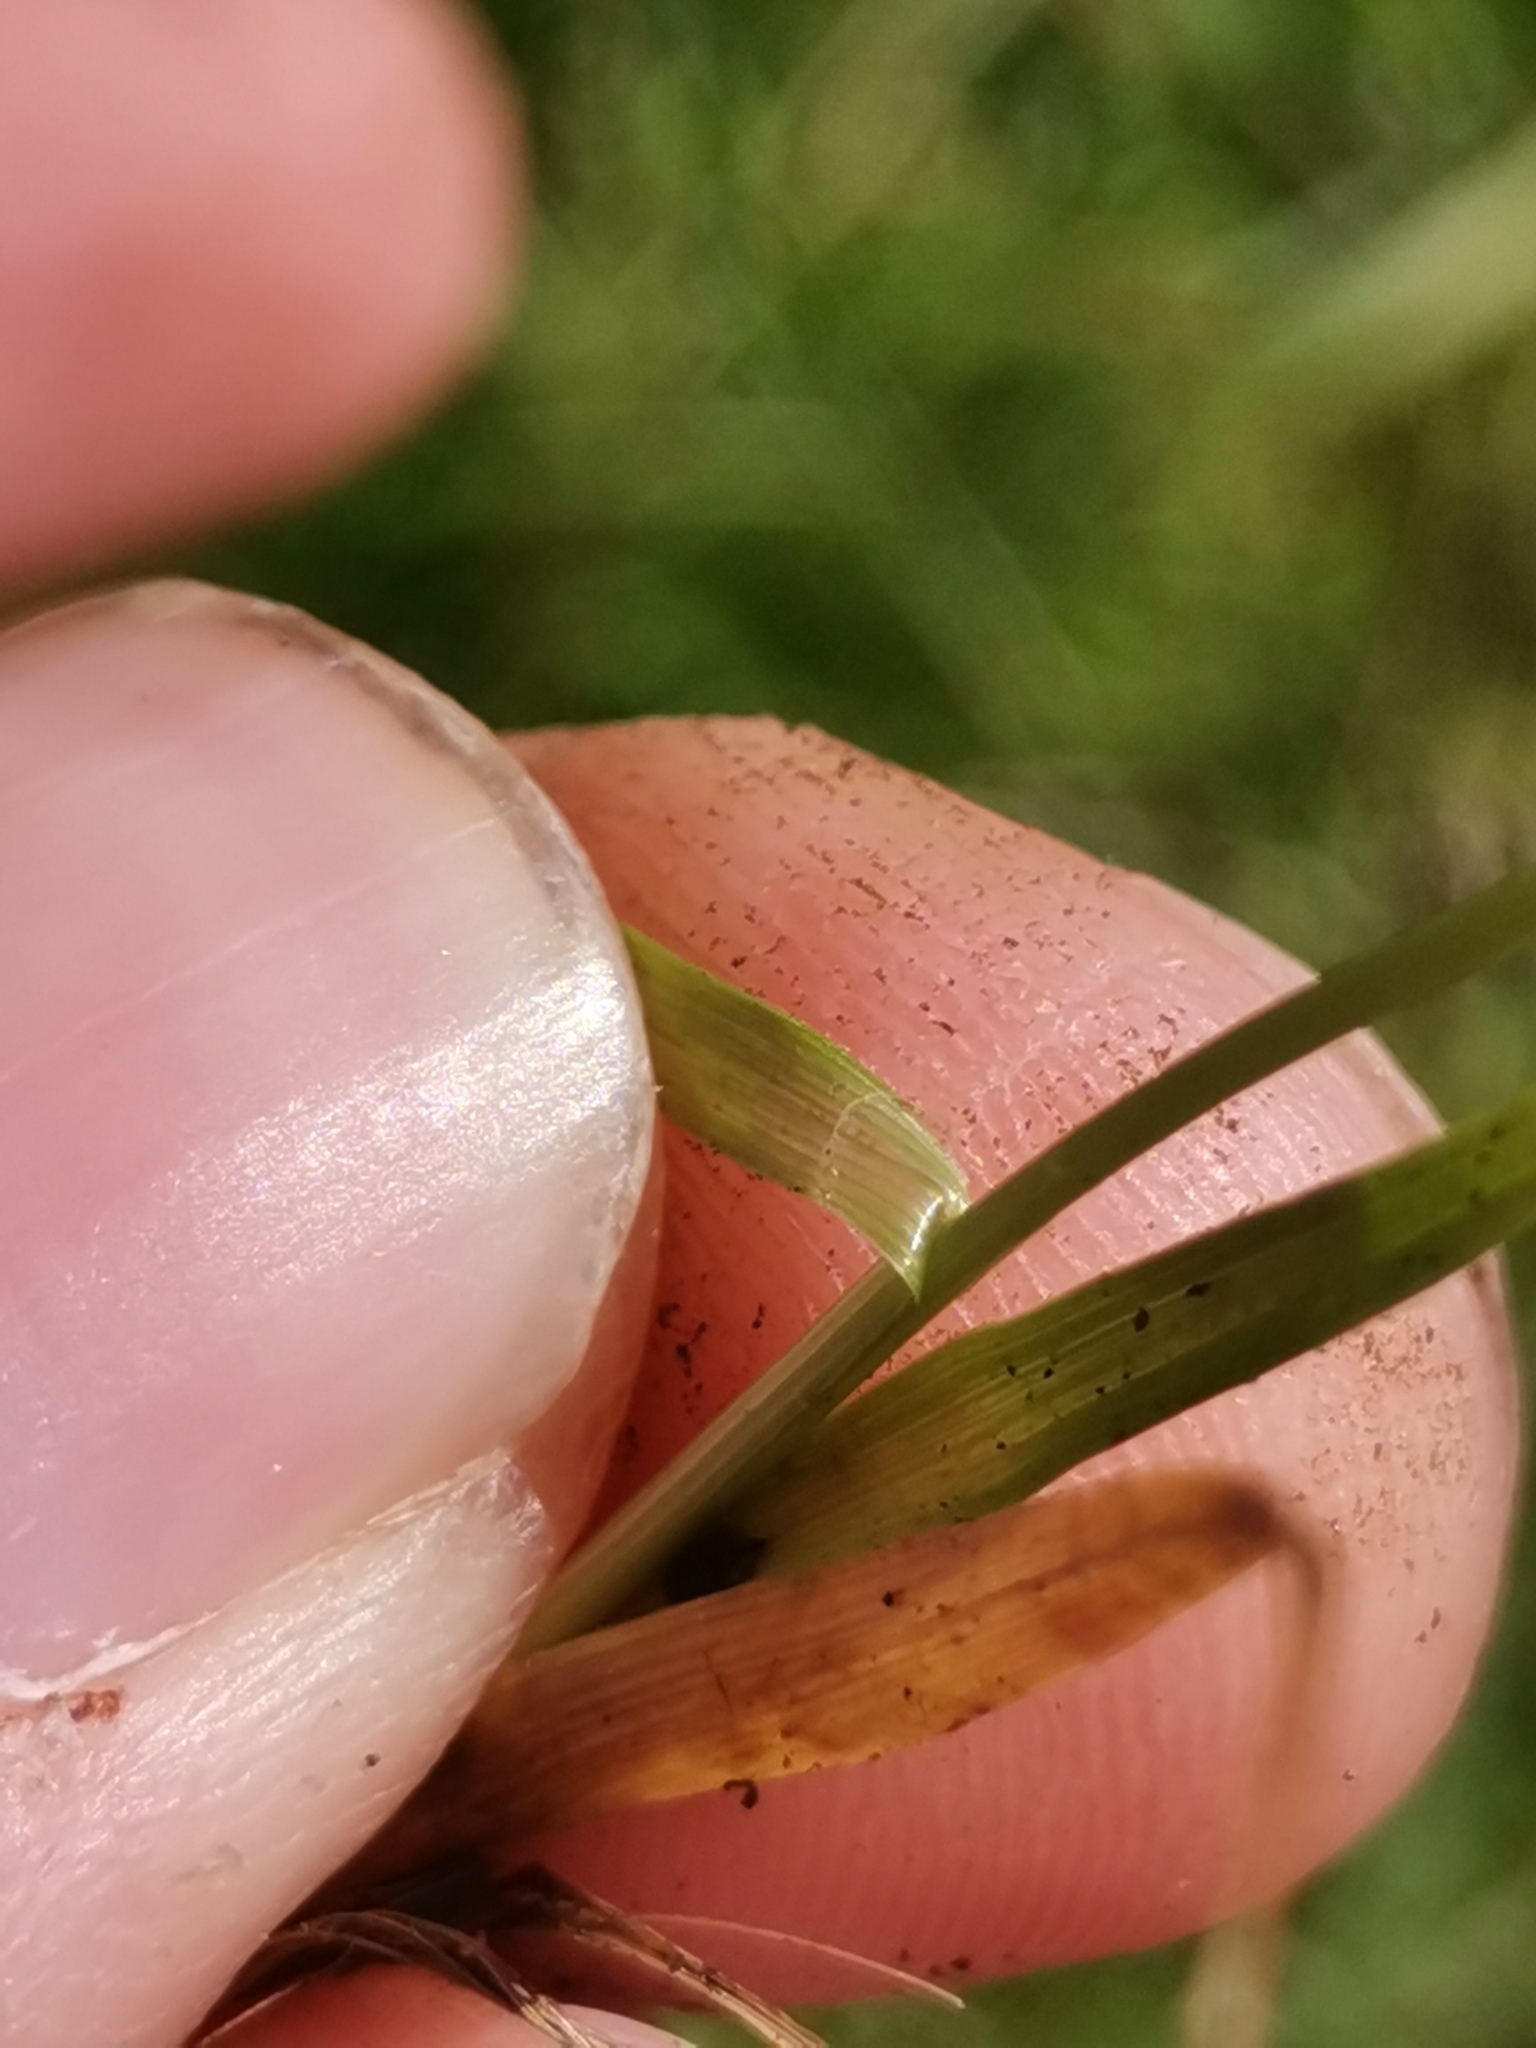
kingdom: Plantae
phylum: Tracheophyta
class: Liliopsida
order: Poales
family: Cyperaceae
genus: Carex
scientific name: Carex firma
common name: Dwarf pillow sedge
